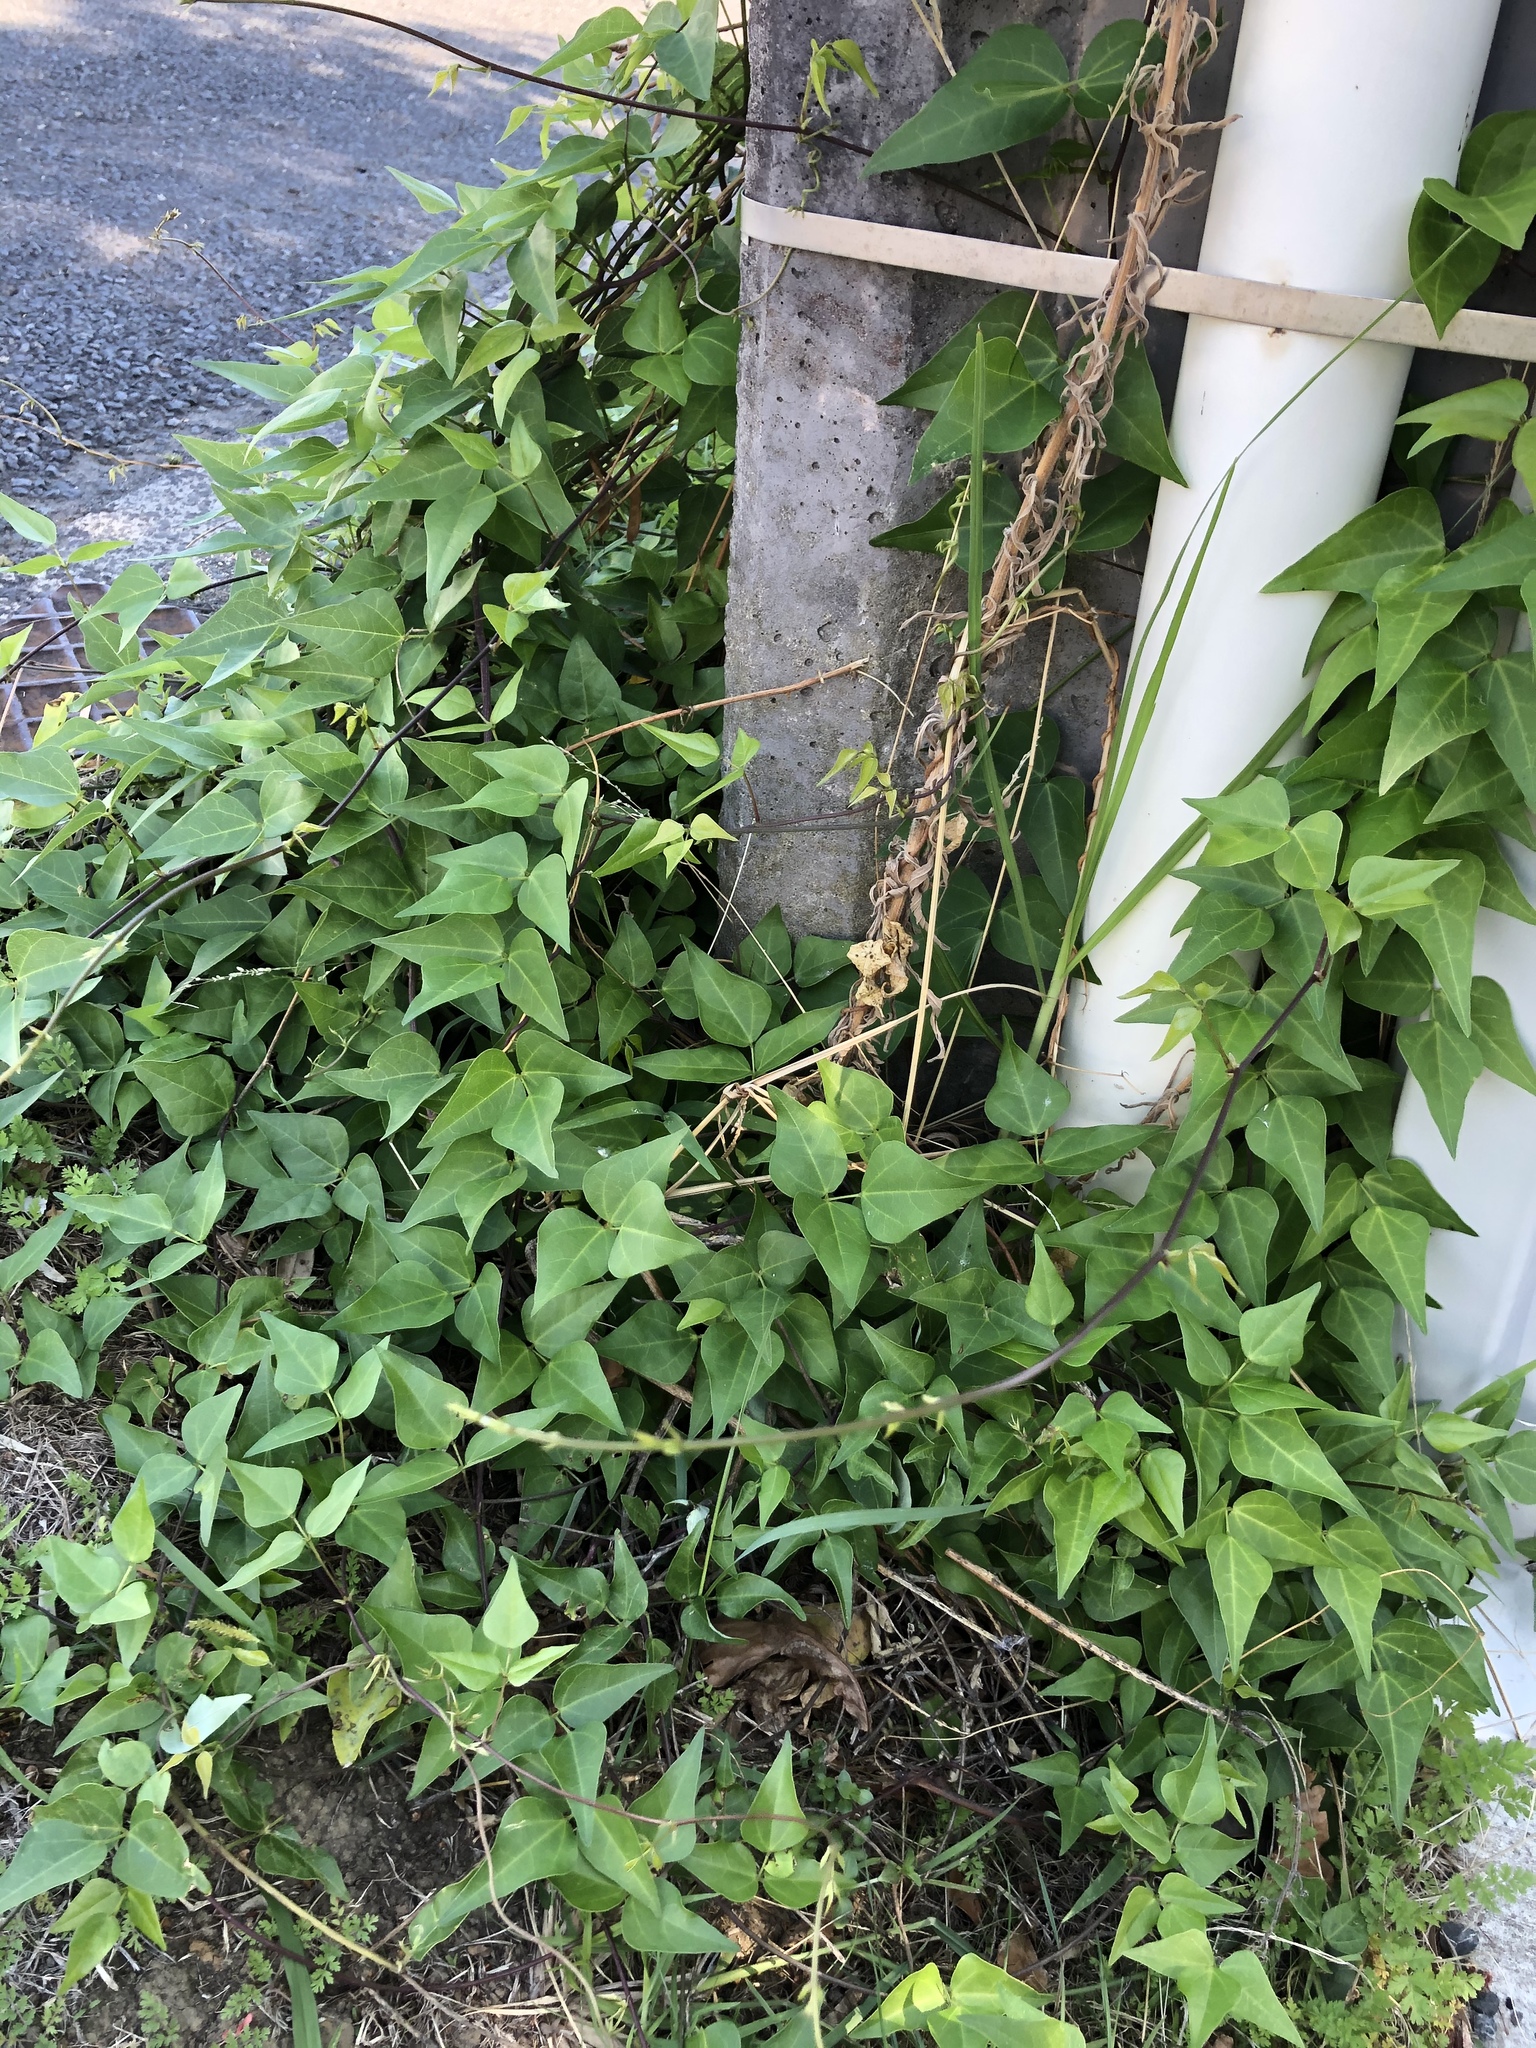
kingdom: Plantae
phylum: Tracheophyta
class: Magnoliopsida
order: Fabales
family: Fabaceae
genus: Dipogon
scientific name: Dipogon lignosus
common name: Okie bean
